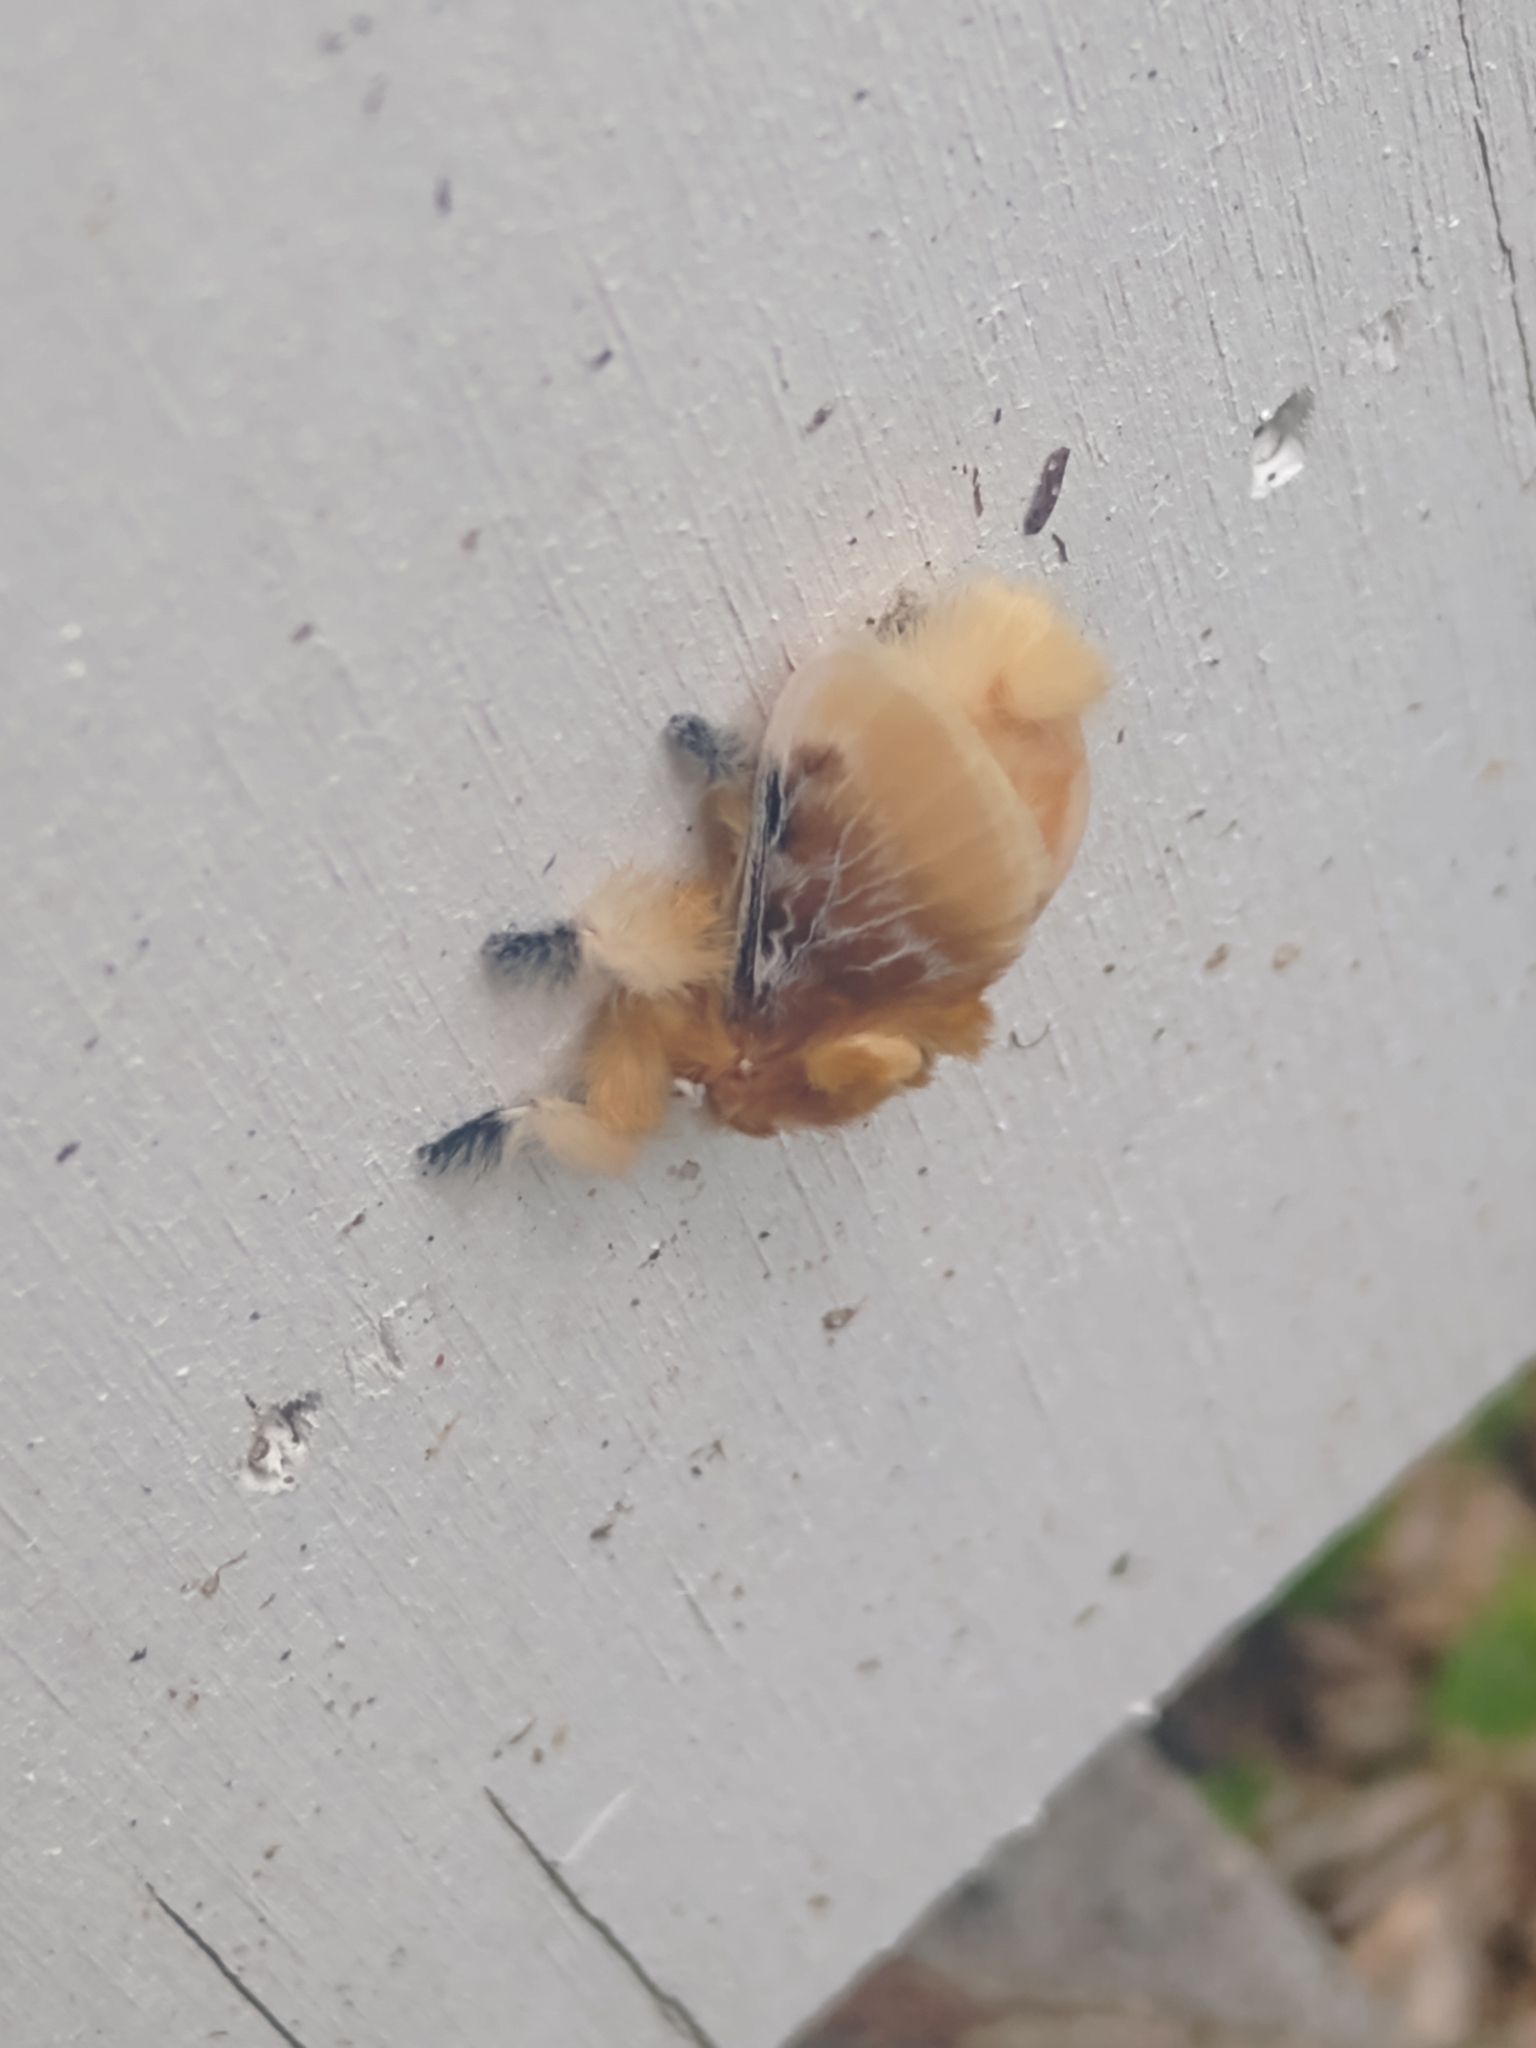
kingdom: Animalia
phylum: Arthropoda
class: Insecta
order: Lepidoptera
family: Megalopygidae
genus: Megalopyge
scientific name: Megalopyge opercularis
